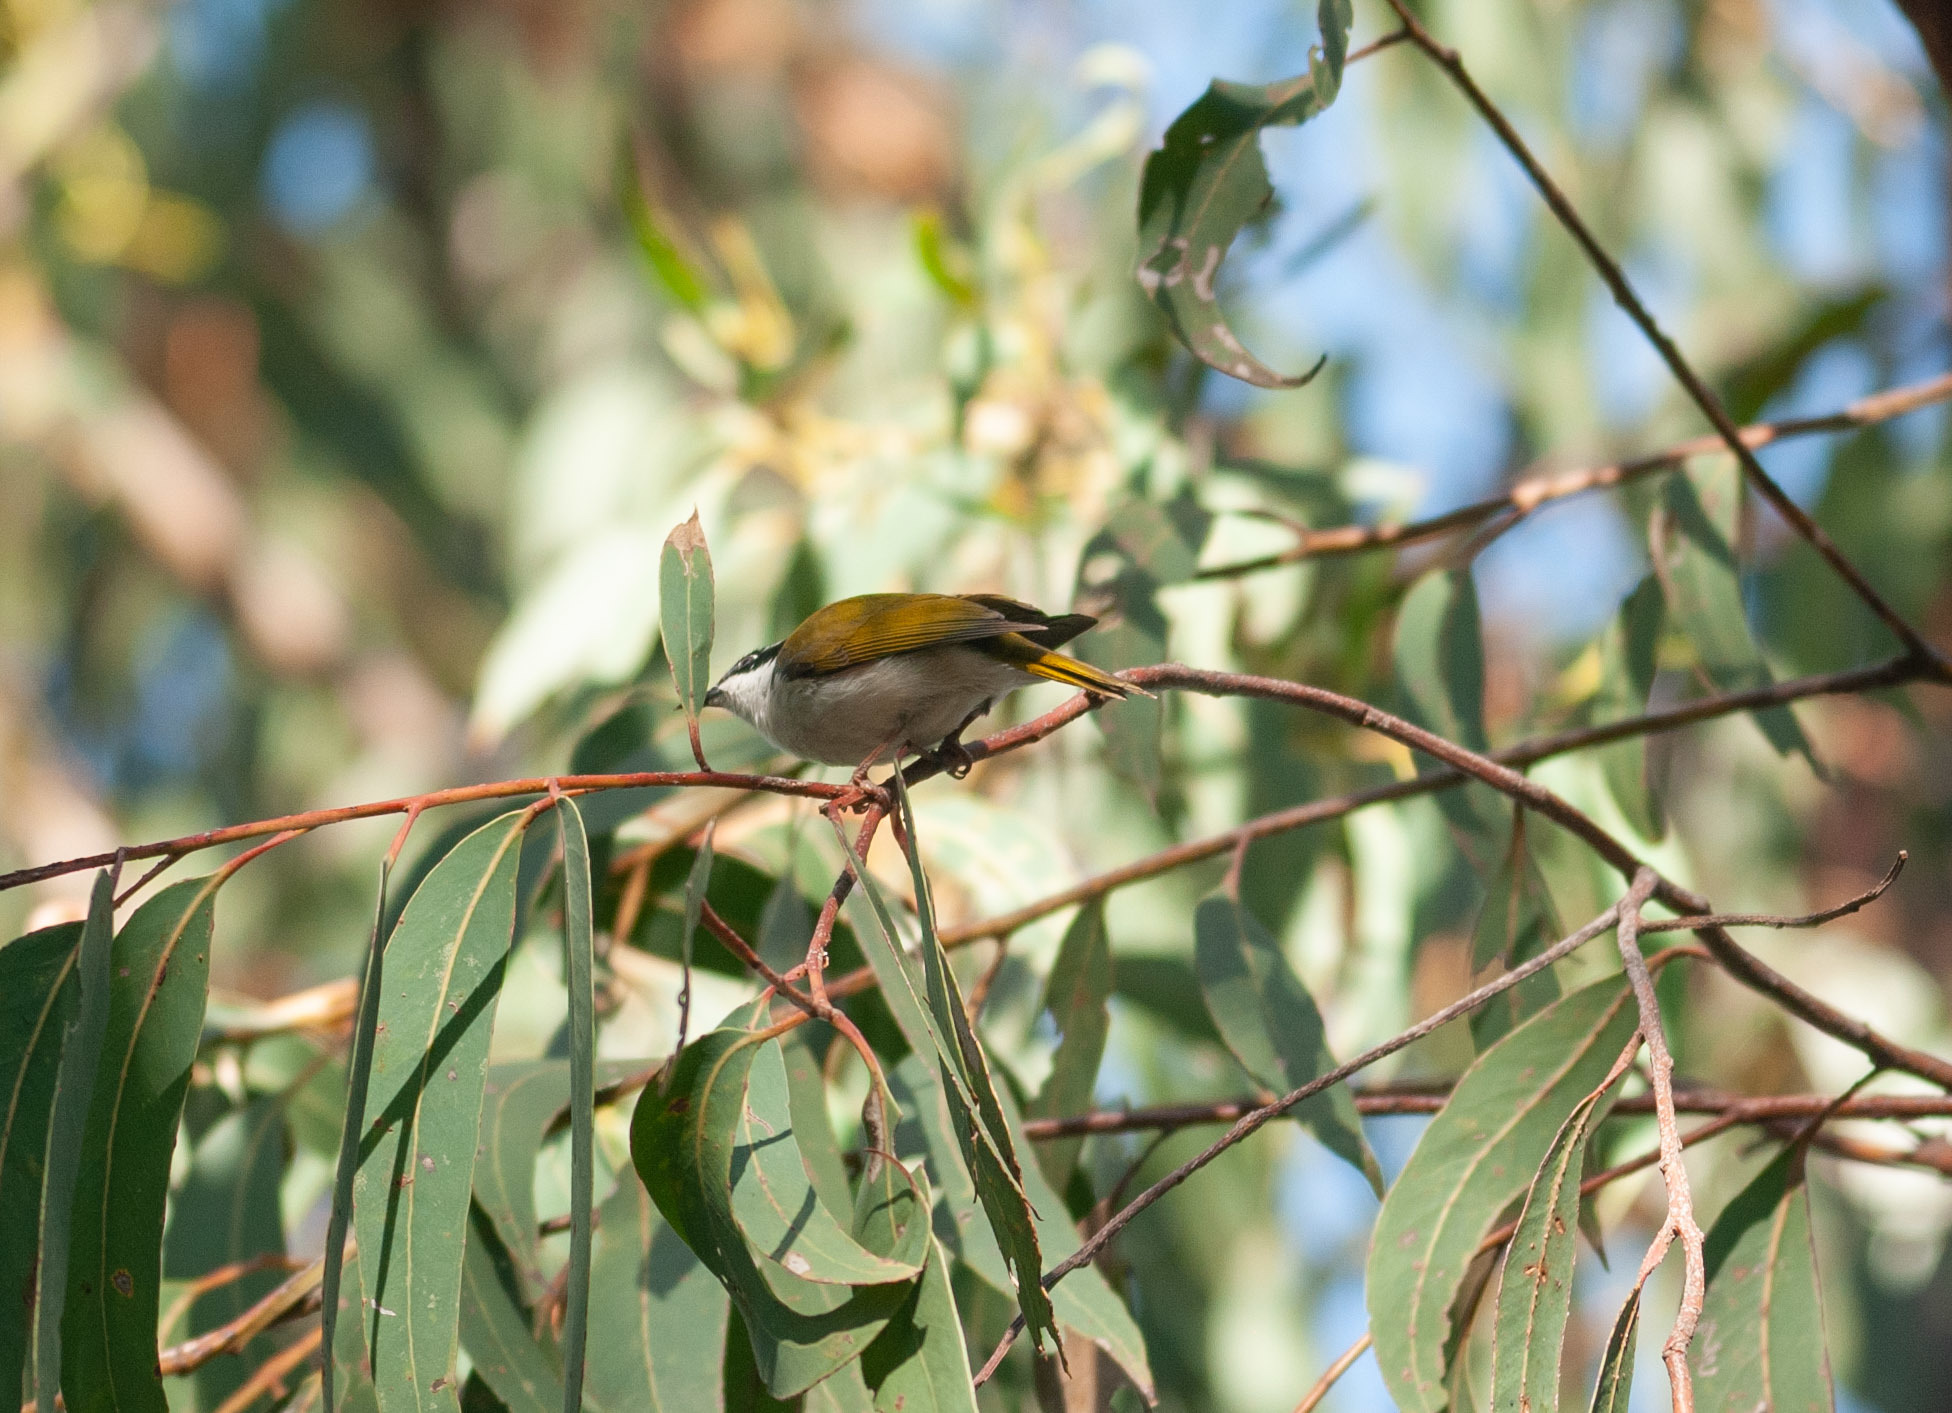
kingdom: Animalia
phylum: Chordata
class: Aves
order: Passeriformes
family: Meliphagidae
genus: Melithreptus
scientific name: Melithreptus albogularis
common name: White-throated honeyeater
